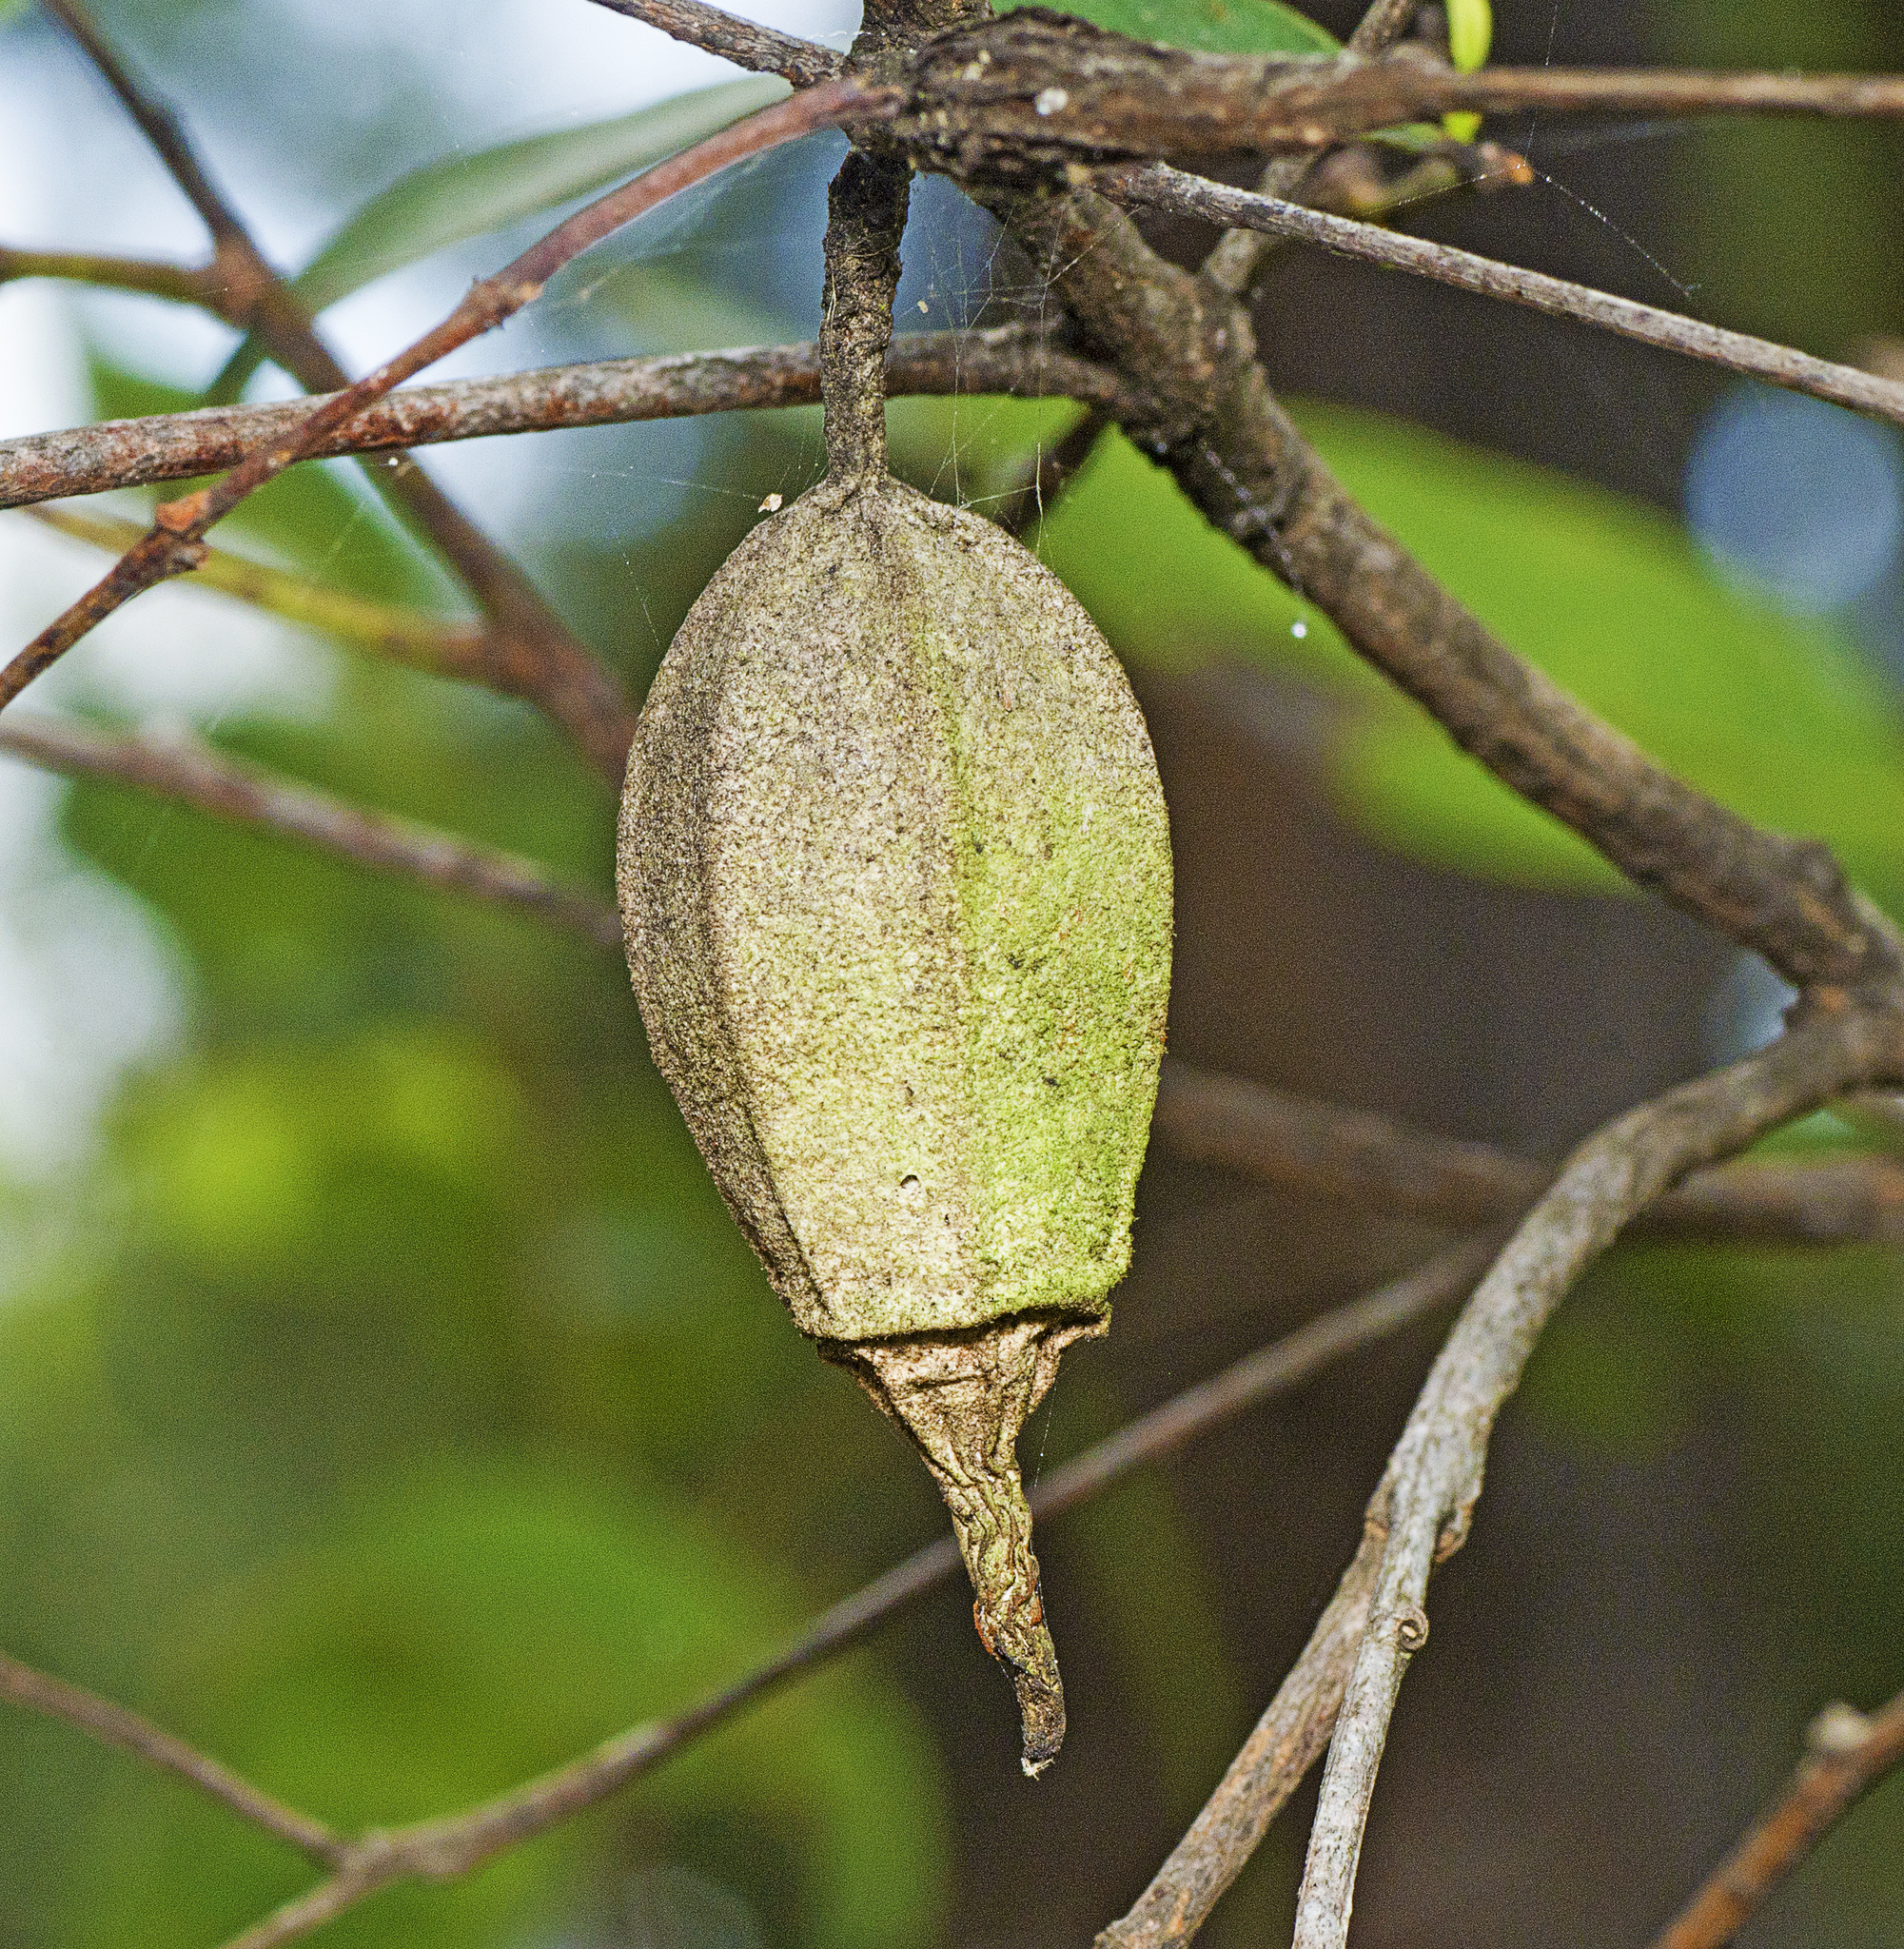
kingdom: Animalia
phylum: Arthropoda
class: Insecta
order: Lepidoptera
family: Psychidae
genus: Hyalarcta
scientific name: Hyalarcta nigrescens
